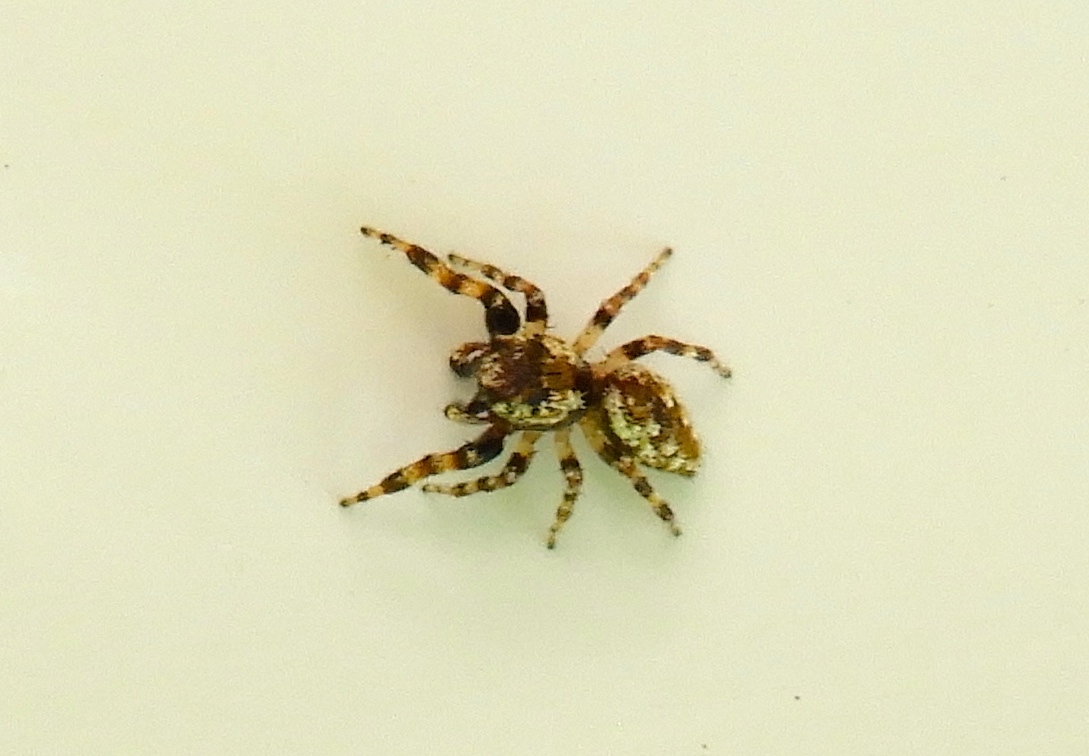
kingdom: Animalia
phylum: Arthropoda
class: Arachnida
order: Araneae
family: Salticidae
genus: Pelegrina
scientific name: Pelegrina
